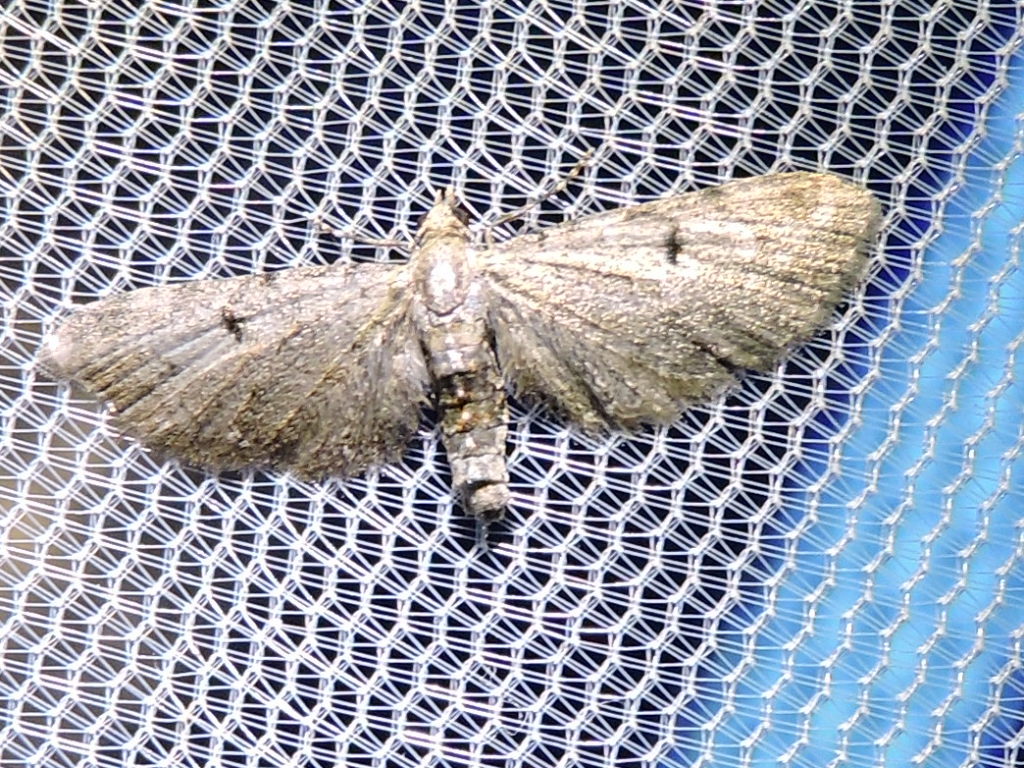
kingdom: Animalia
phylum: Arthropoda
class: Insecta
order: Lepidoptera
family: Geometridae
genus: Eupithecia
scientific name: Eupithecia miserulata
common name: Common eupithecia
